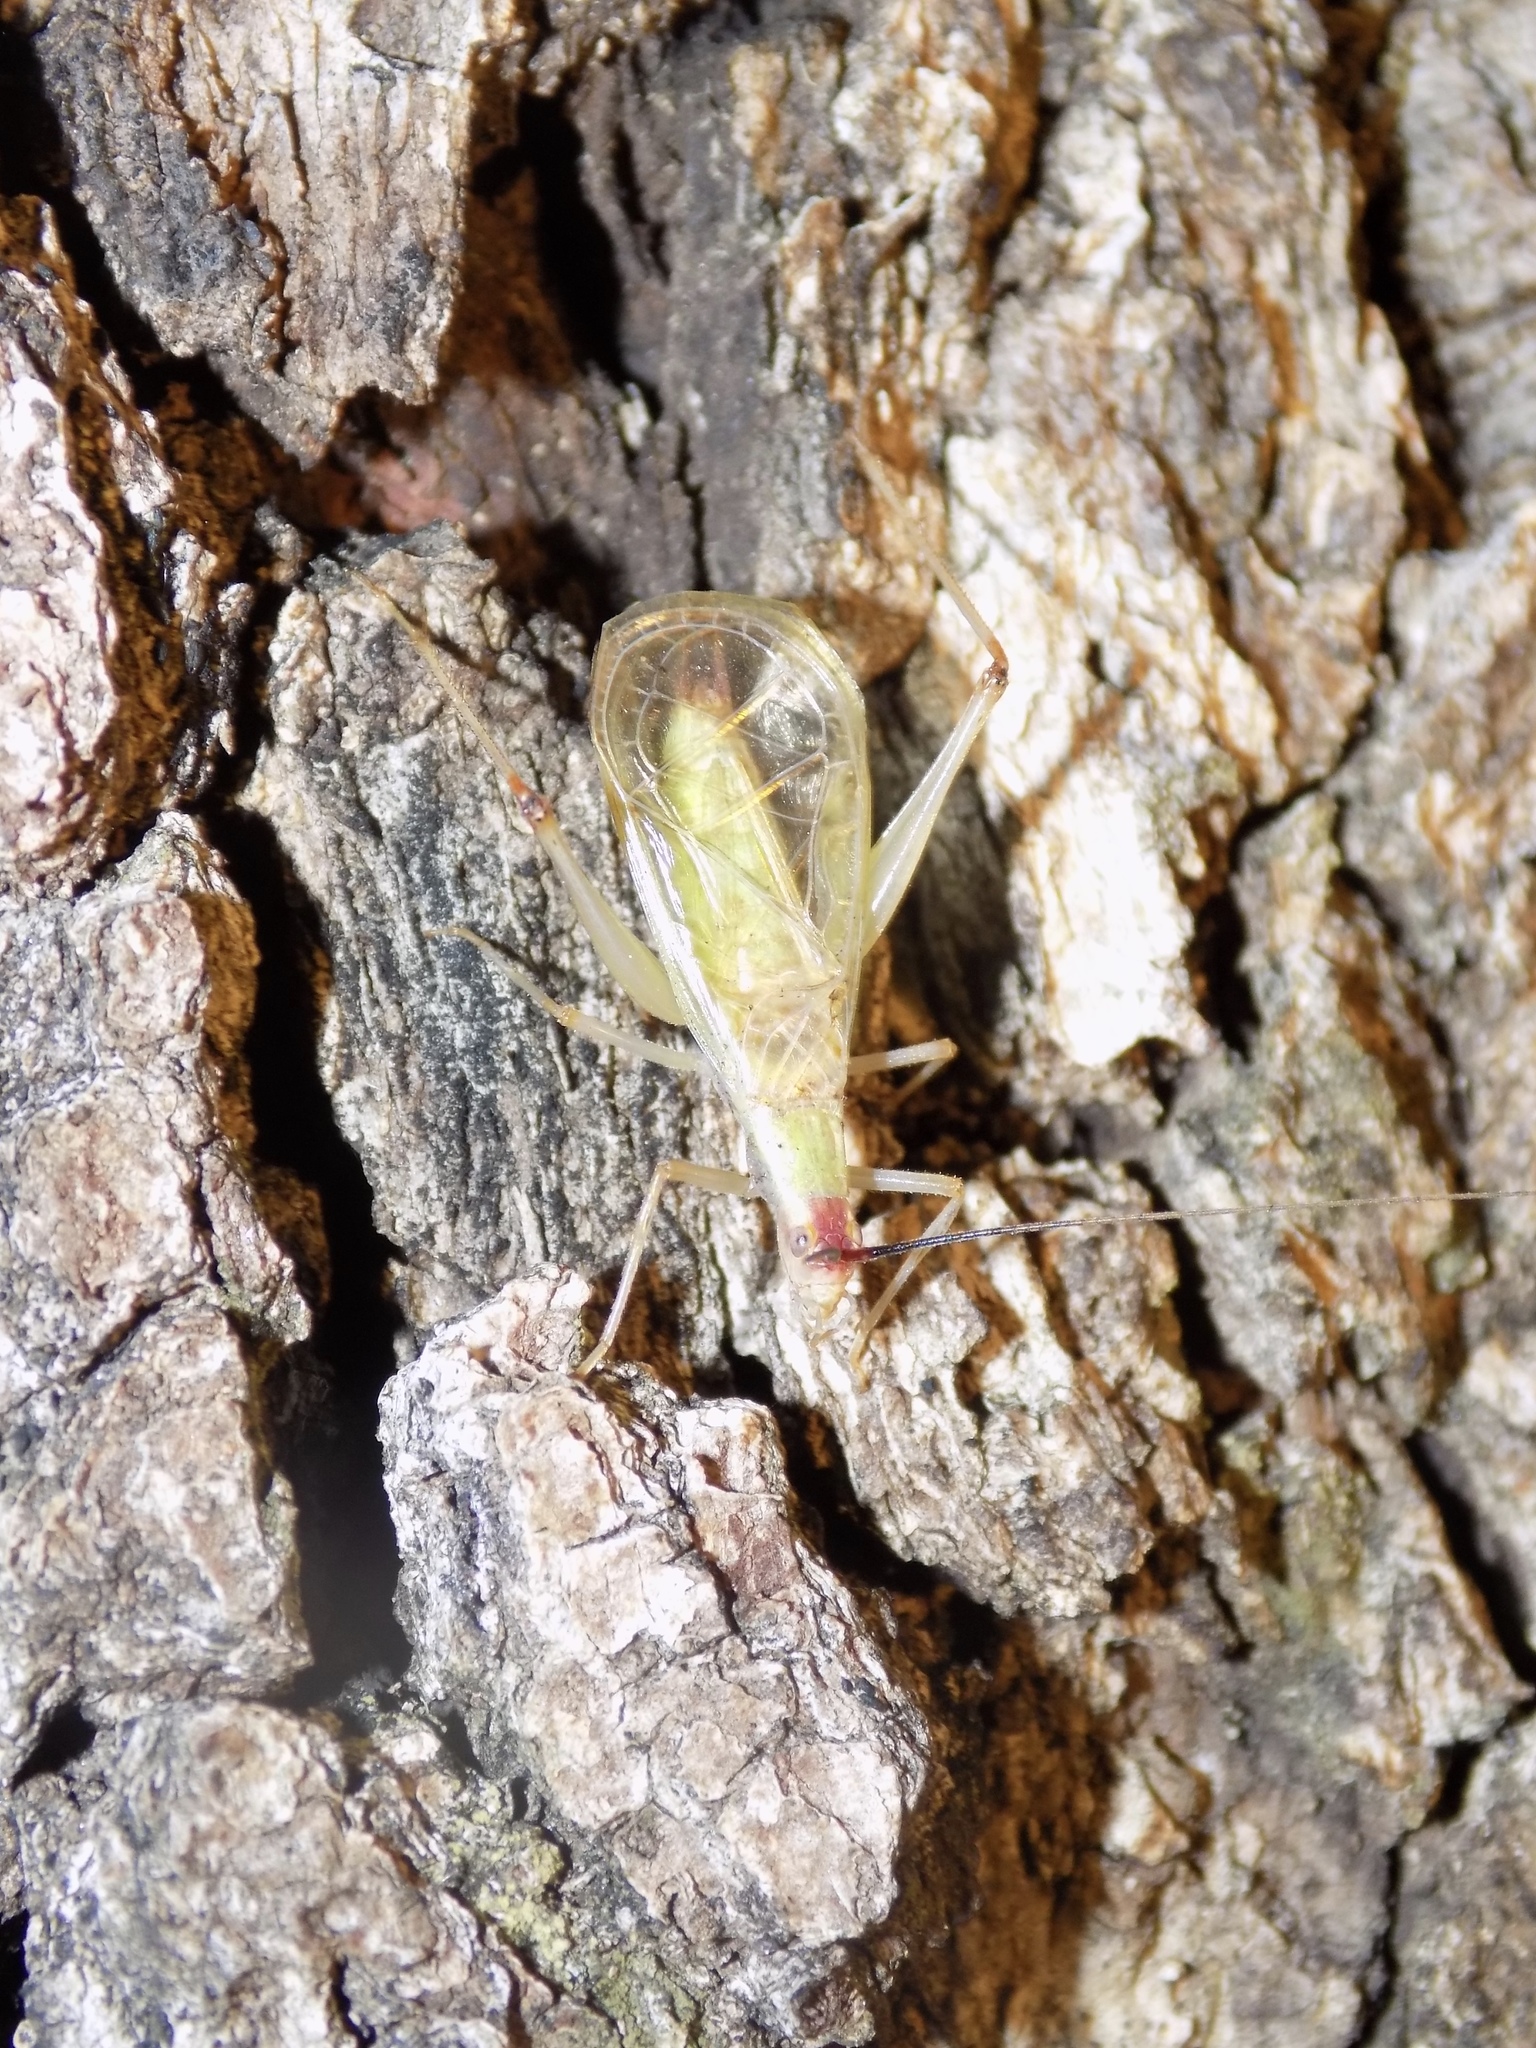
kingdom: Animalia
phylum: Arthropoda
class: Insecta
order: Orthoptera
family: Gryllidae
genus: Oecanthus
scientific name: Oecanthus texensis
